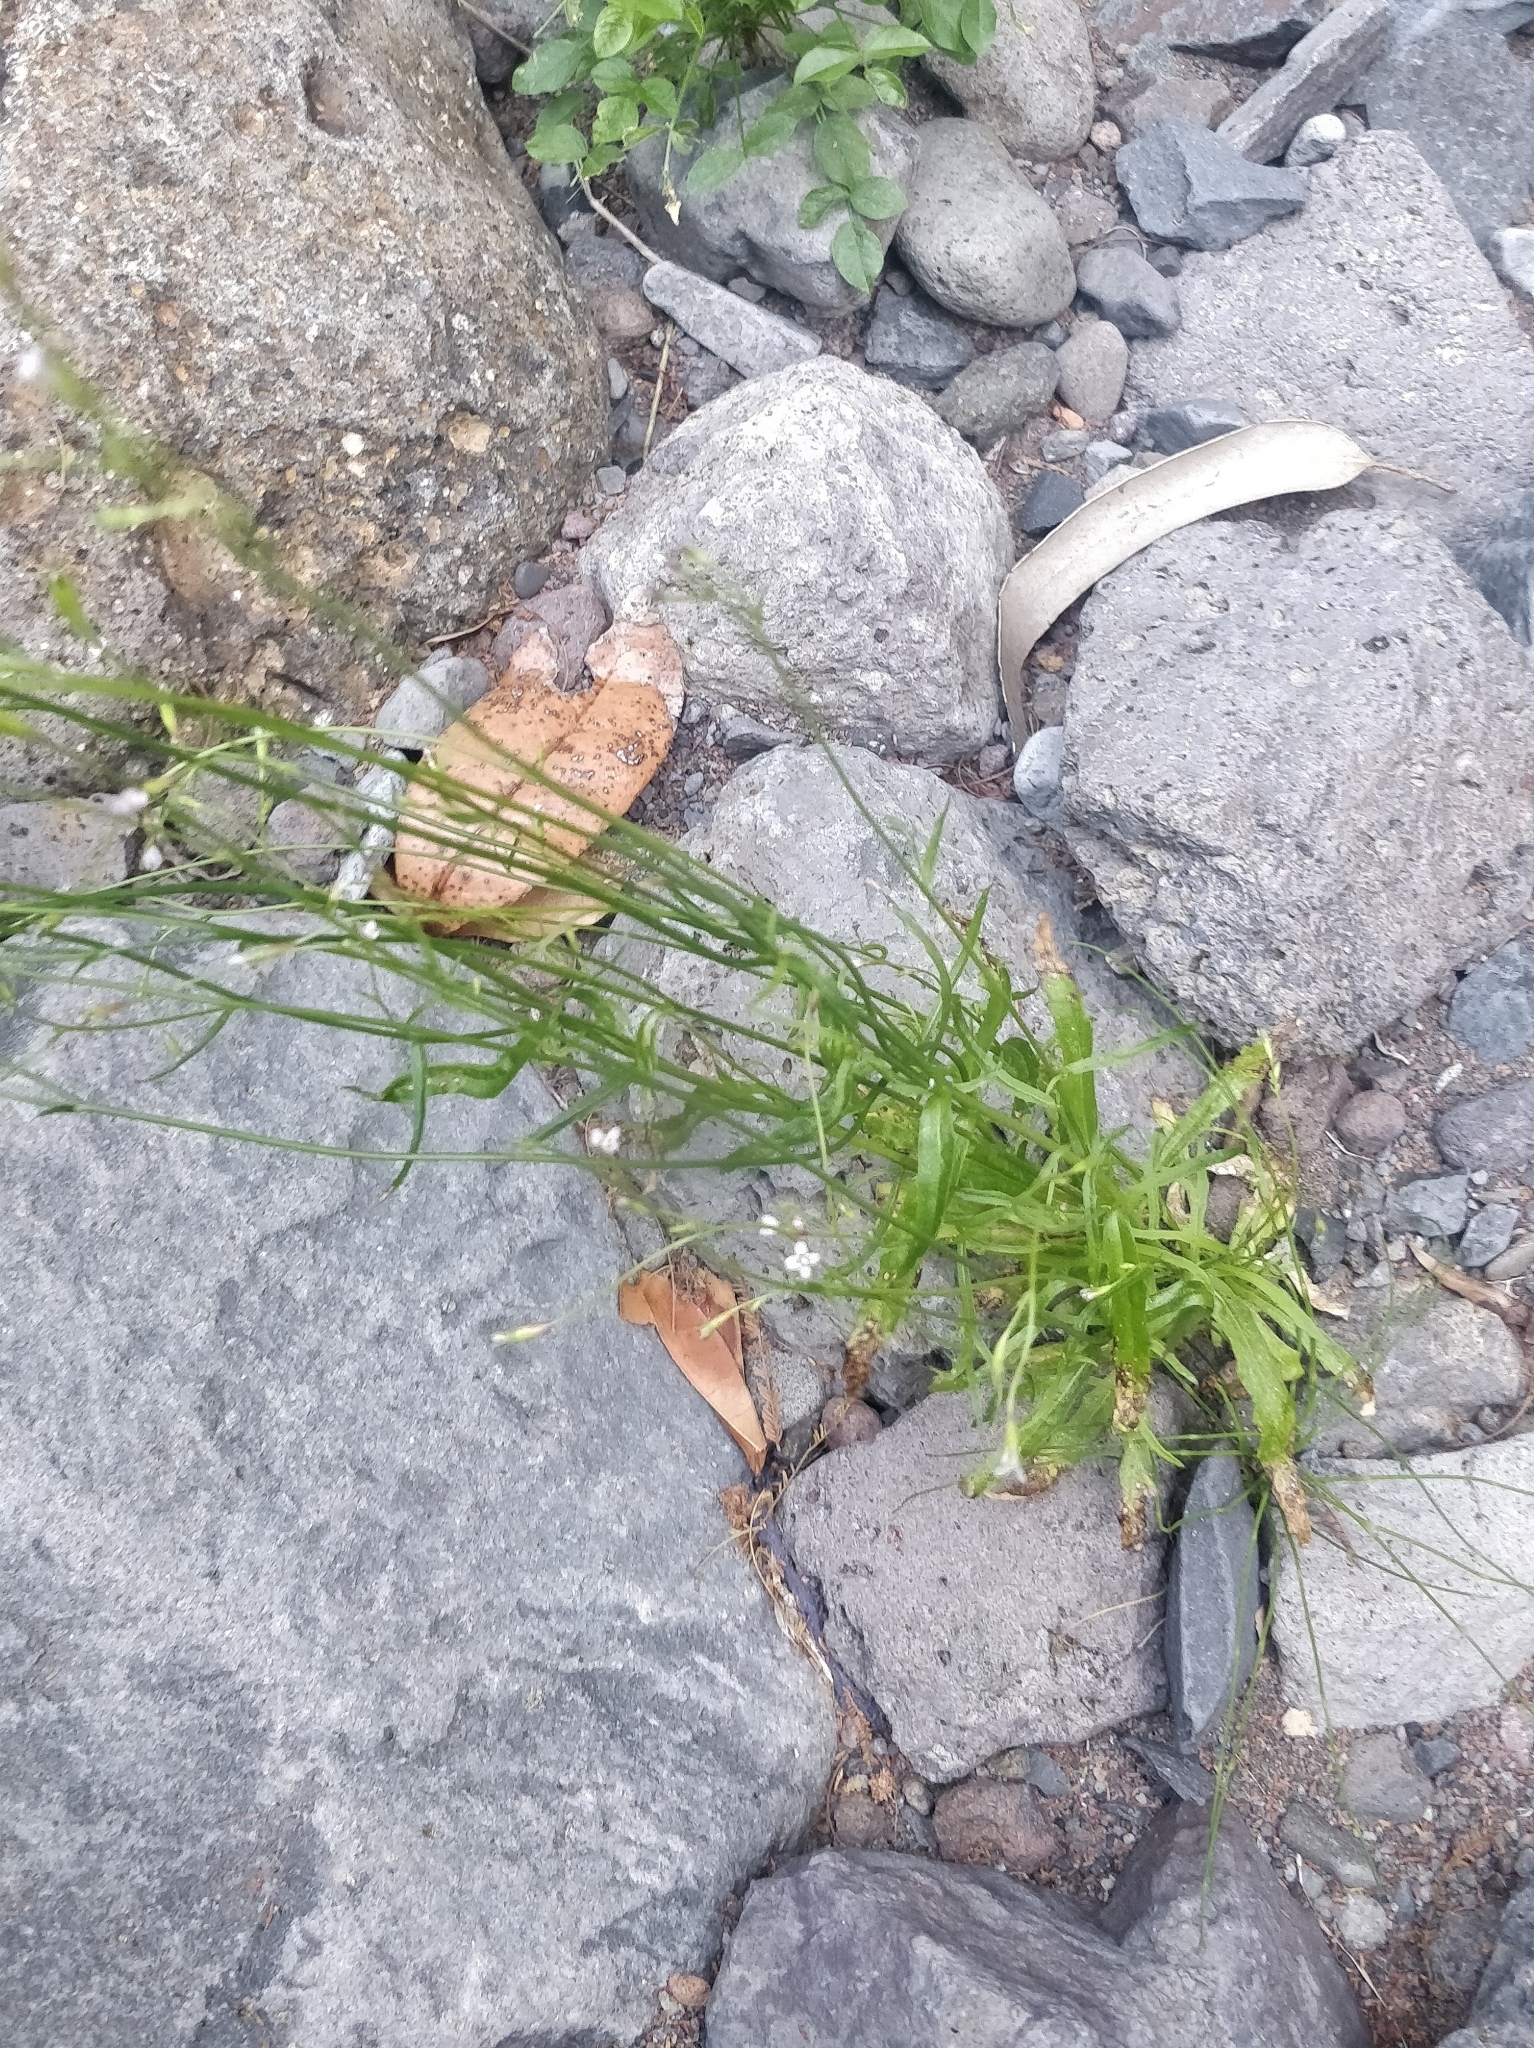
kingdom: Plantae
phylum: Tracheophyta
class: Magnoliopsida
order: Asterales
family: Campanulaceae
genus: Wahlenbergia
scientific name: Wahlenbergia lobelioides
